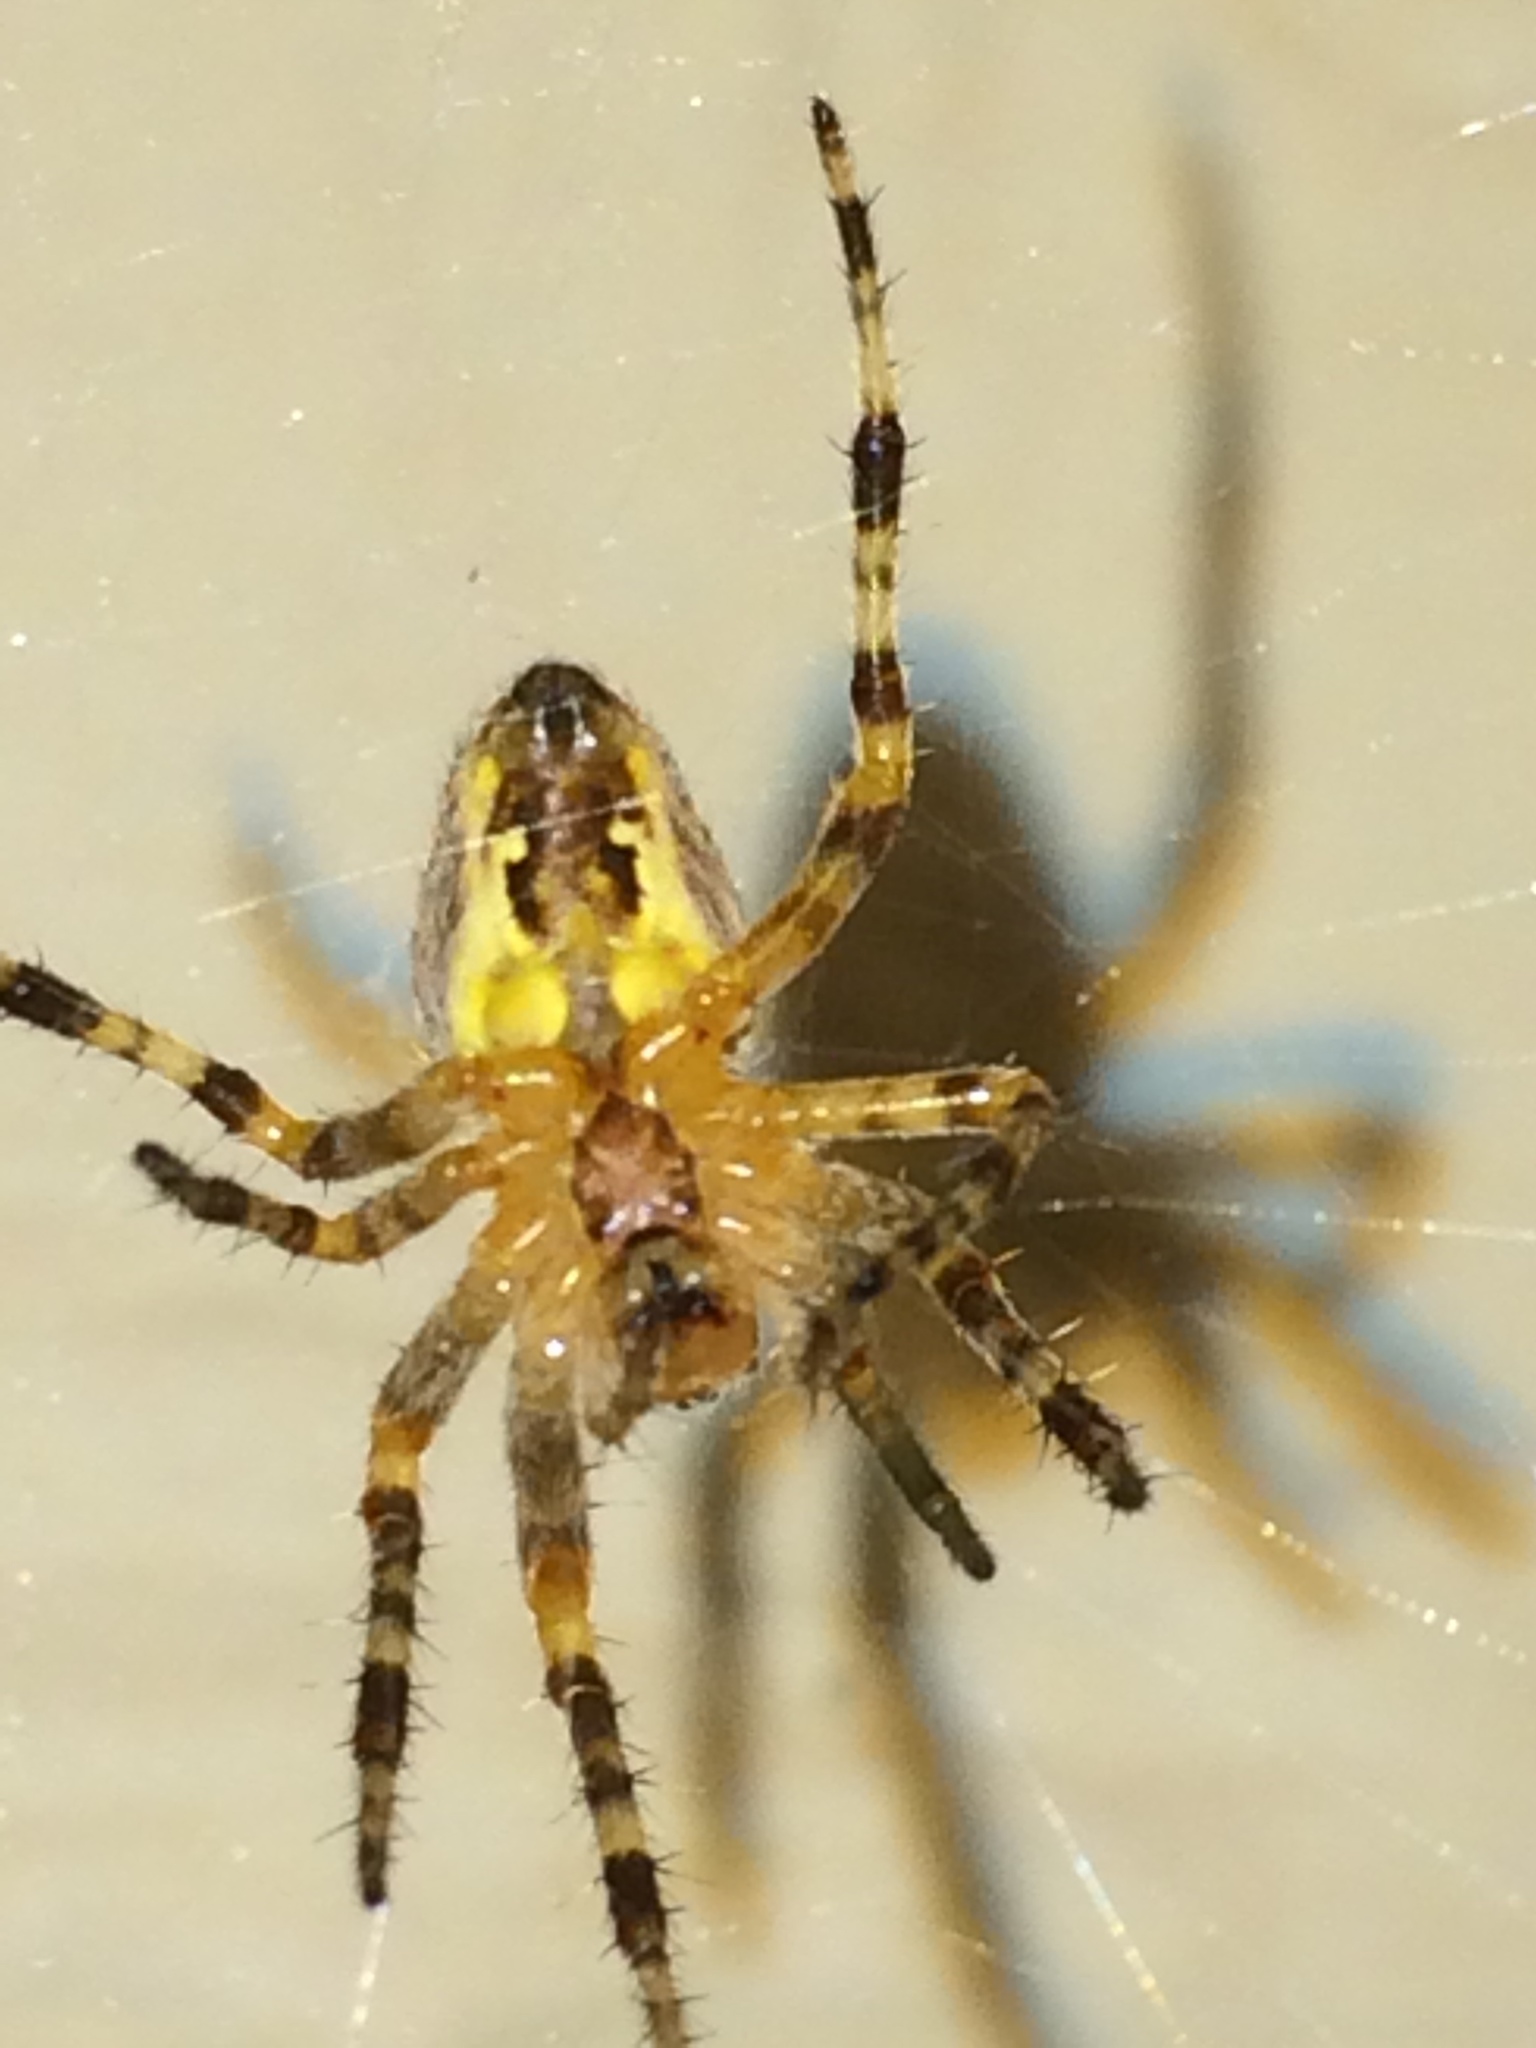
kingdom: Animalia
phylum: Arthropoda
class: Arachnida
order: Araneae
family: Araneidae
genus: Araneus
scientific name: Araneus diadematus
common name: Cross orbweaver
